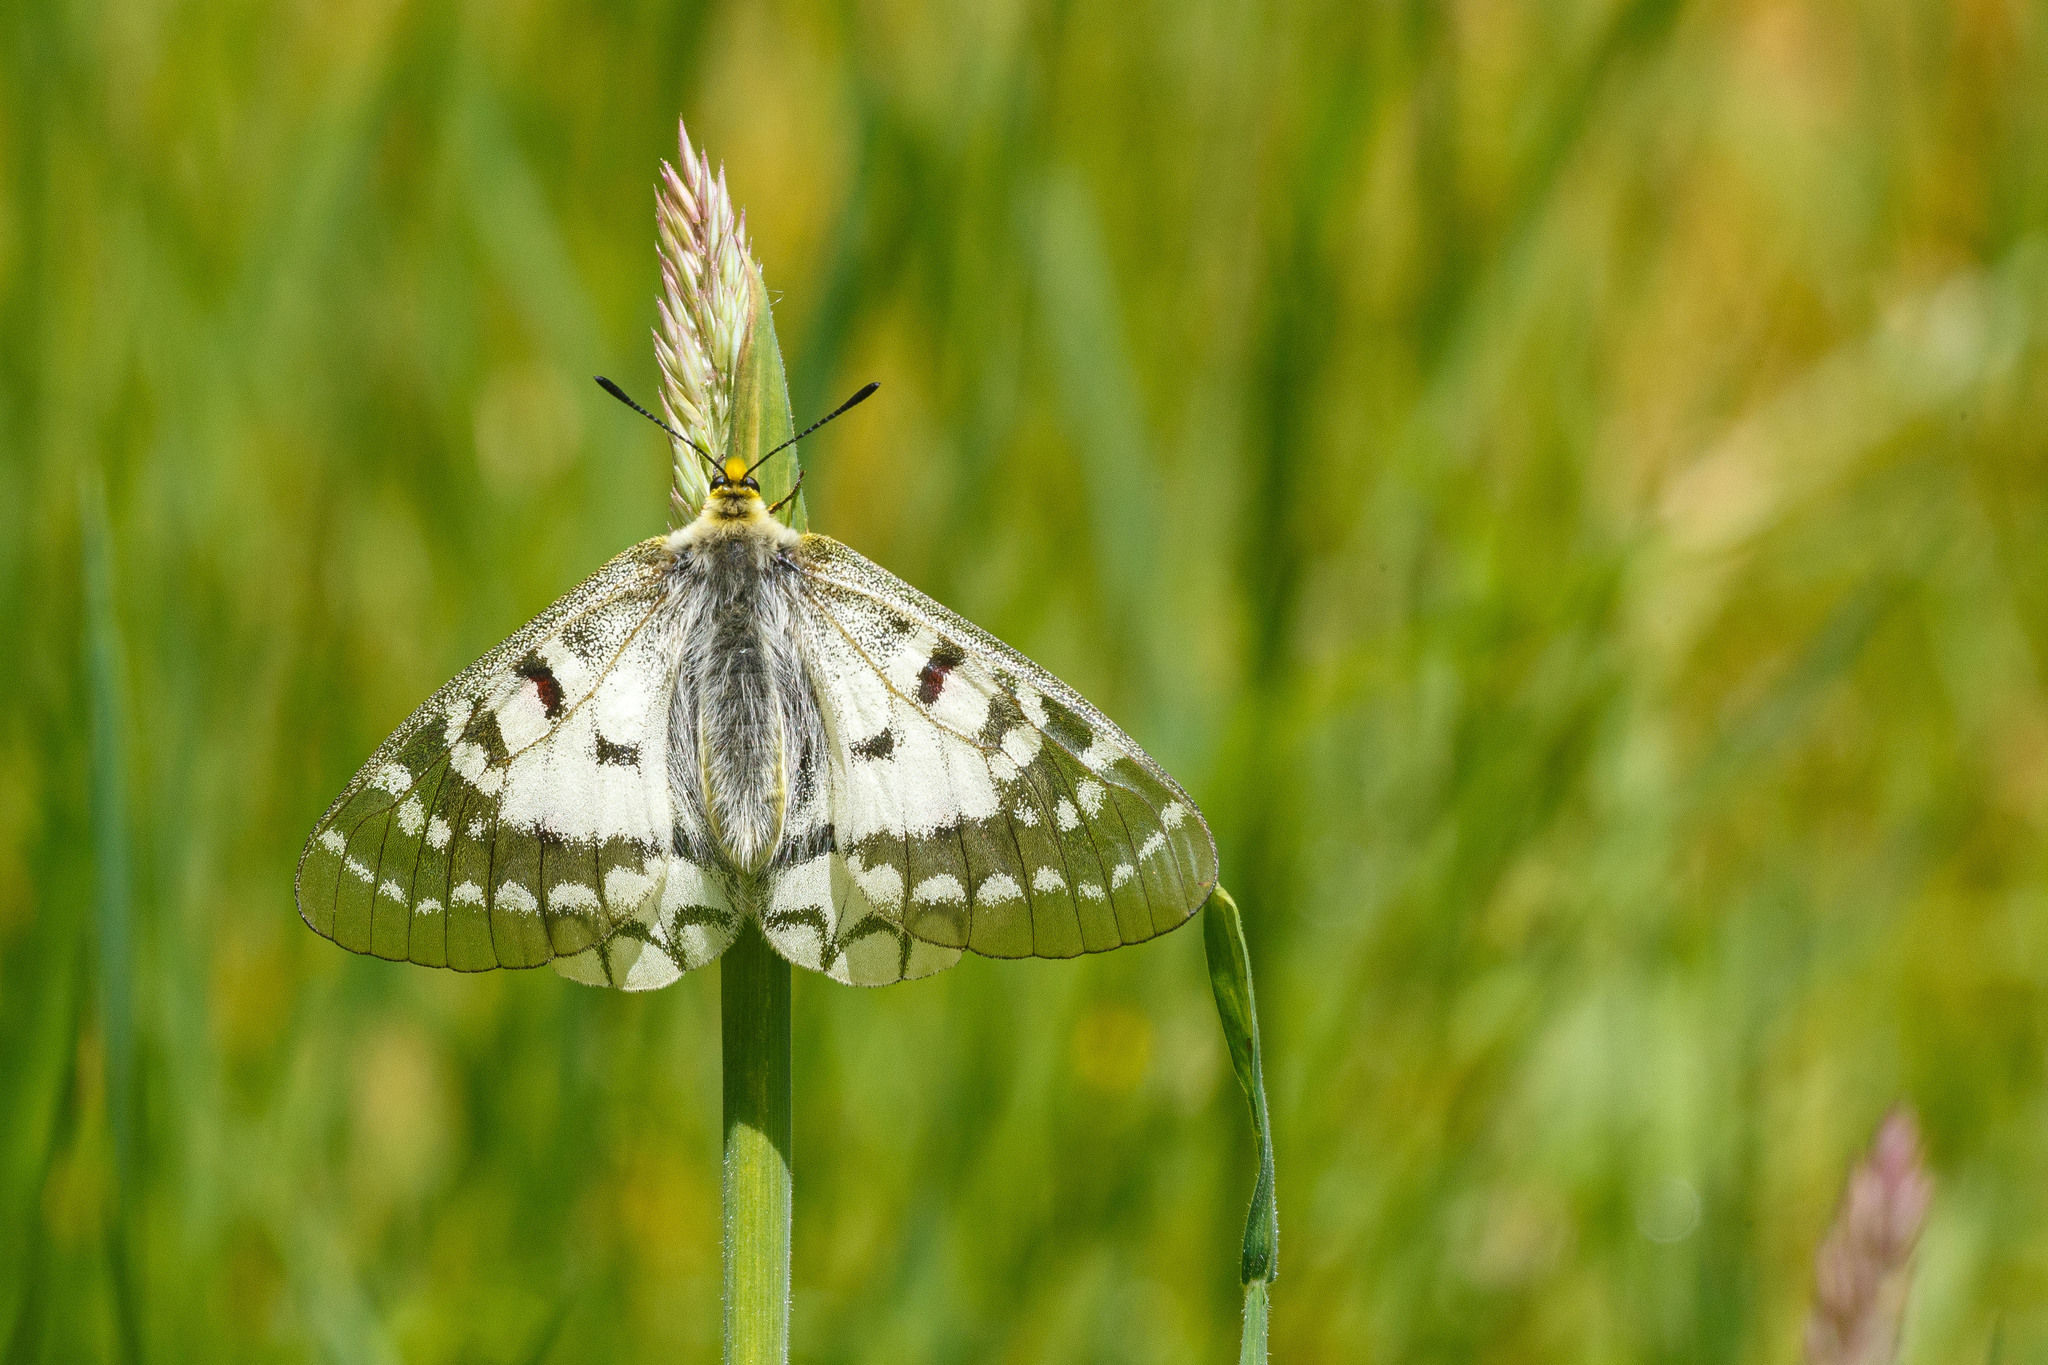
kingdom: Animalia
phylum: Arthropoda
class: Insecta
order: Lepidoptera
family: Papilionidae
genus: Parnassius
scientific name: Parnassius clodius
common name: American apollo
